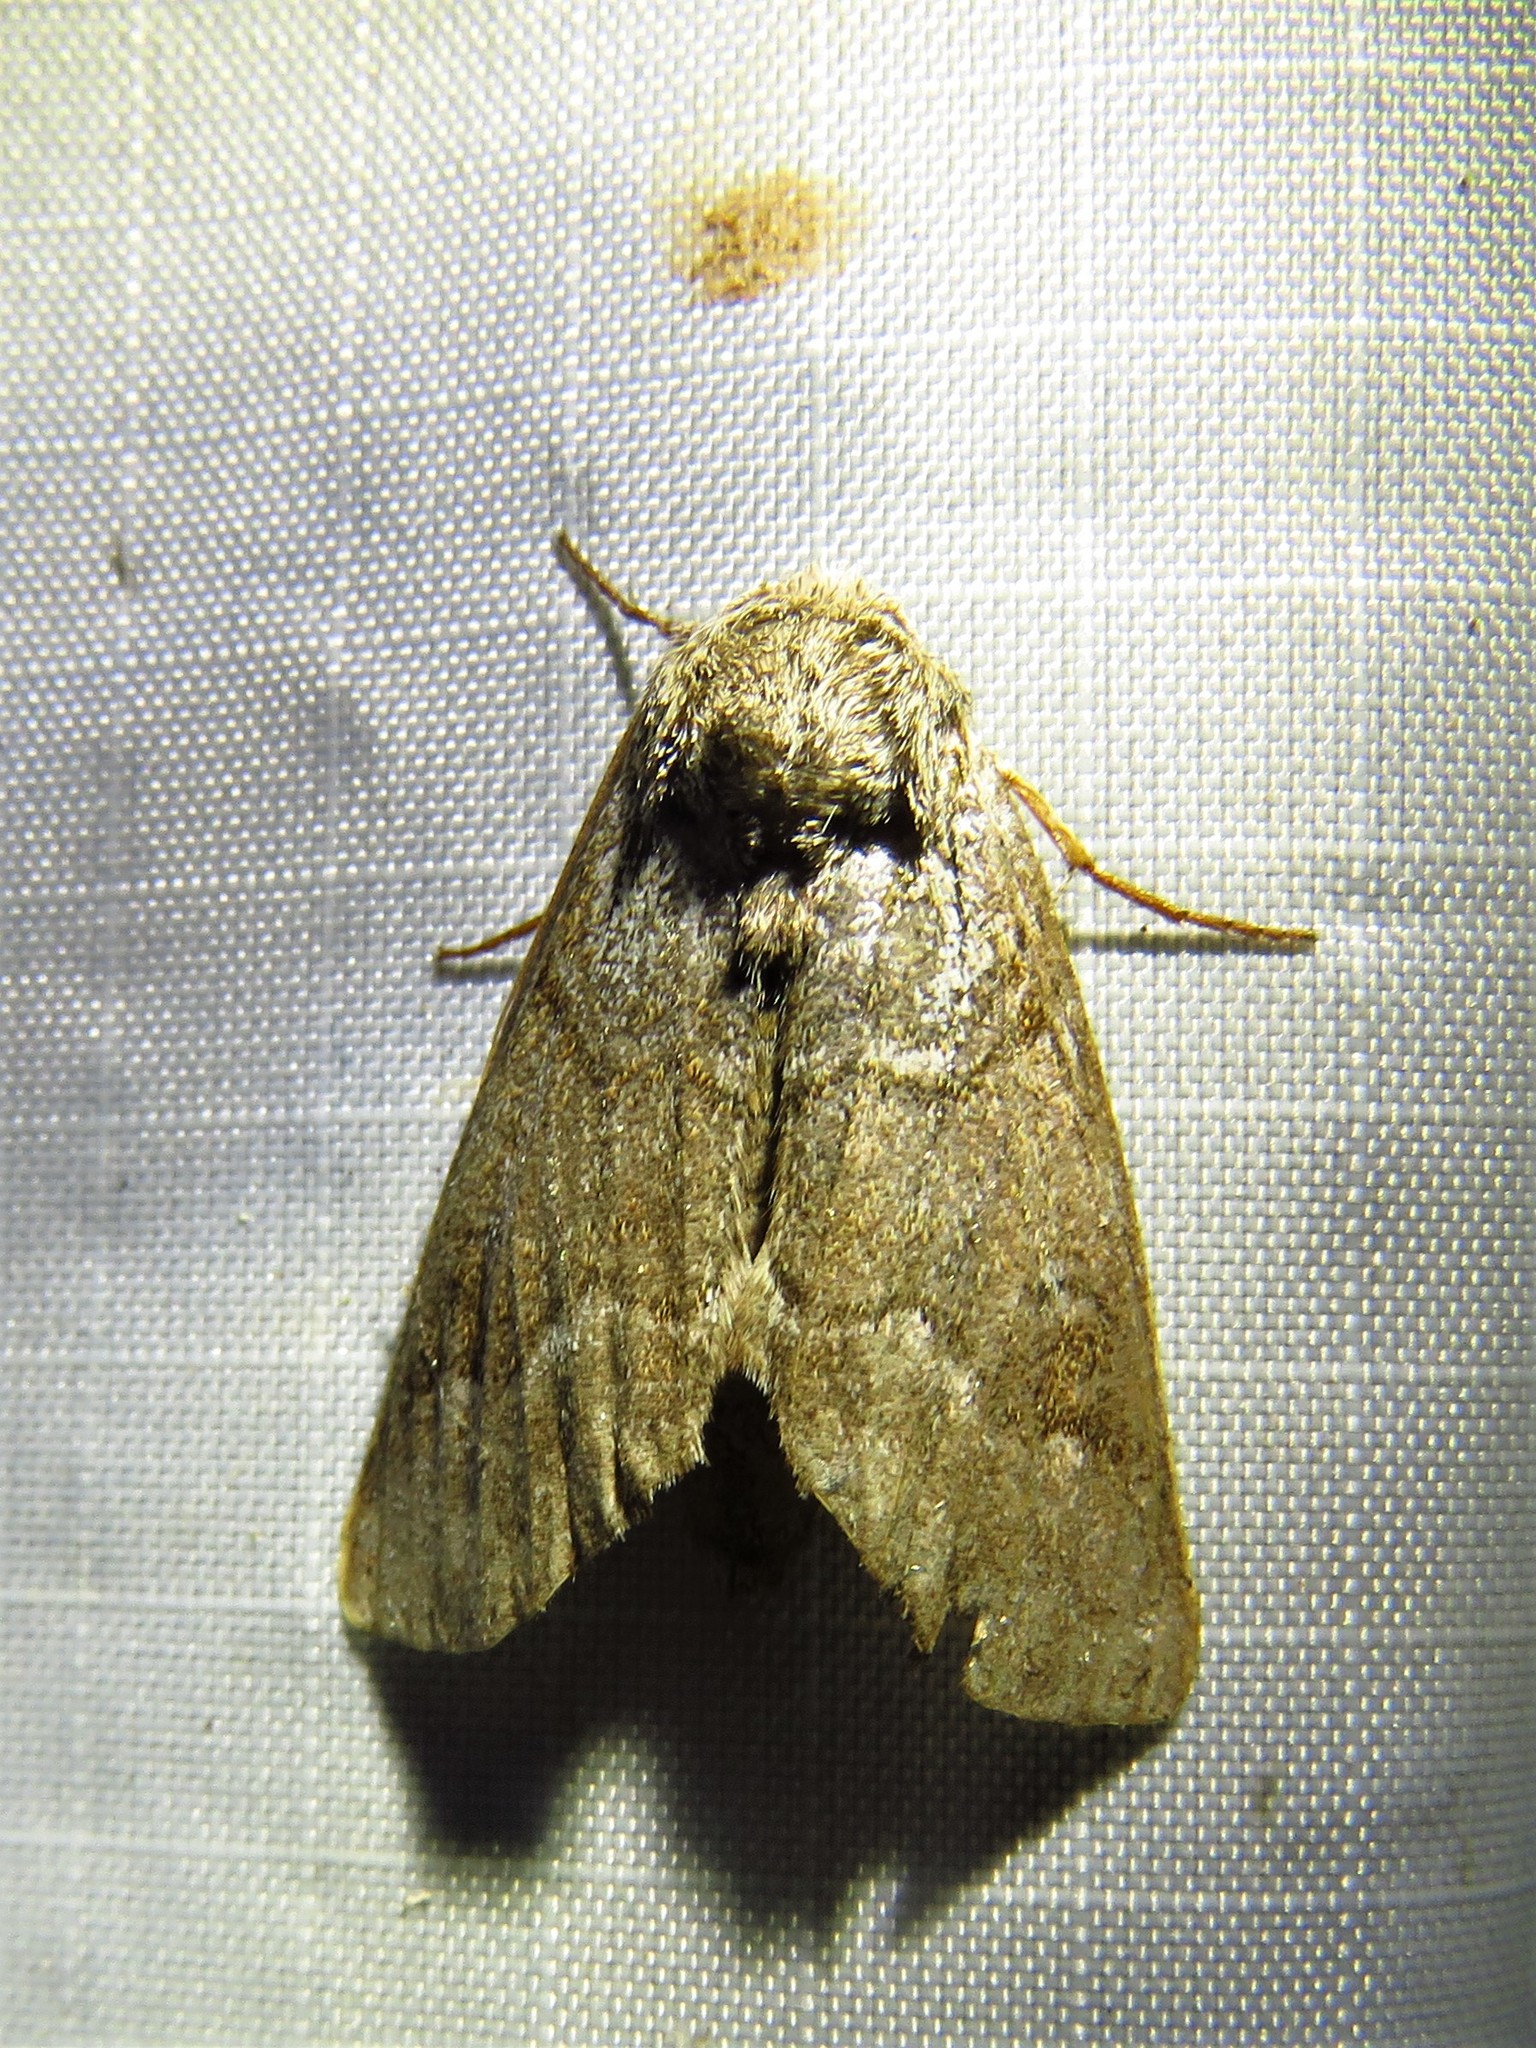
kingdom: Animalia
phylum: Arthropoda
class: Insecta
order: Lepidoptera
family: Notodontidae
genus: Lochmaeus
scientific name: Lochmaeus bilineata
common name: Double-lined prominent
